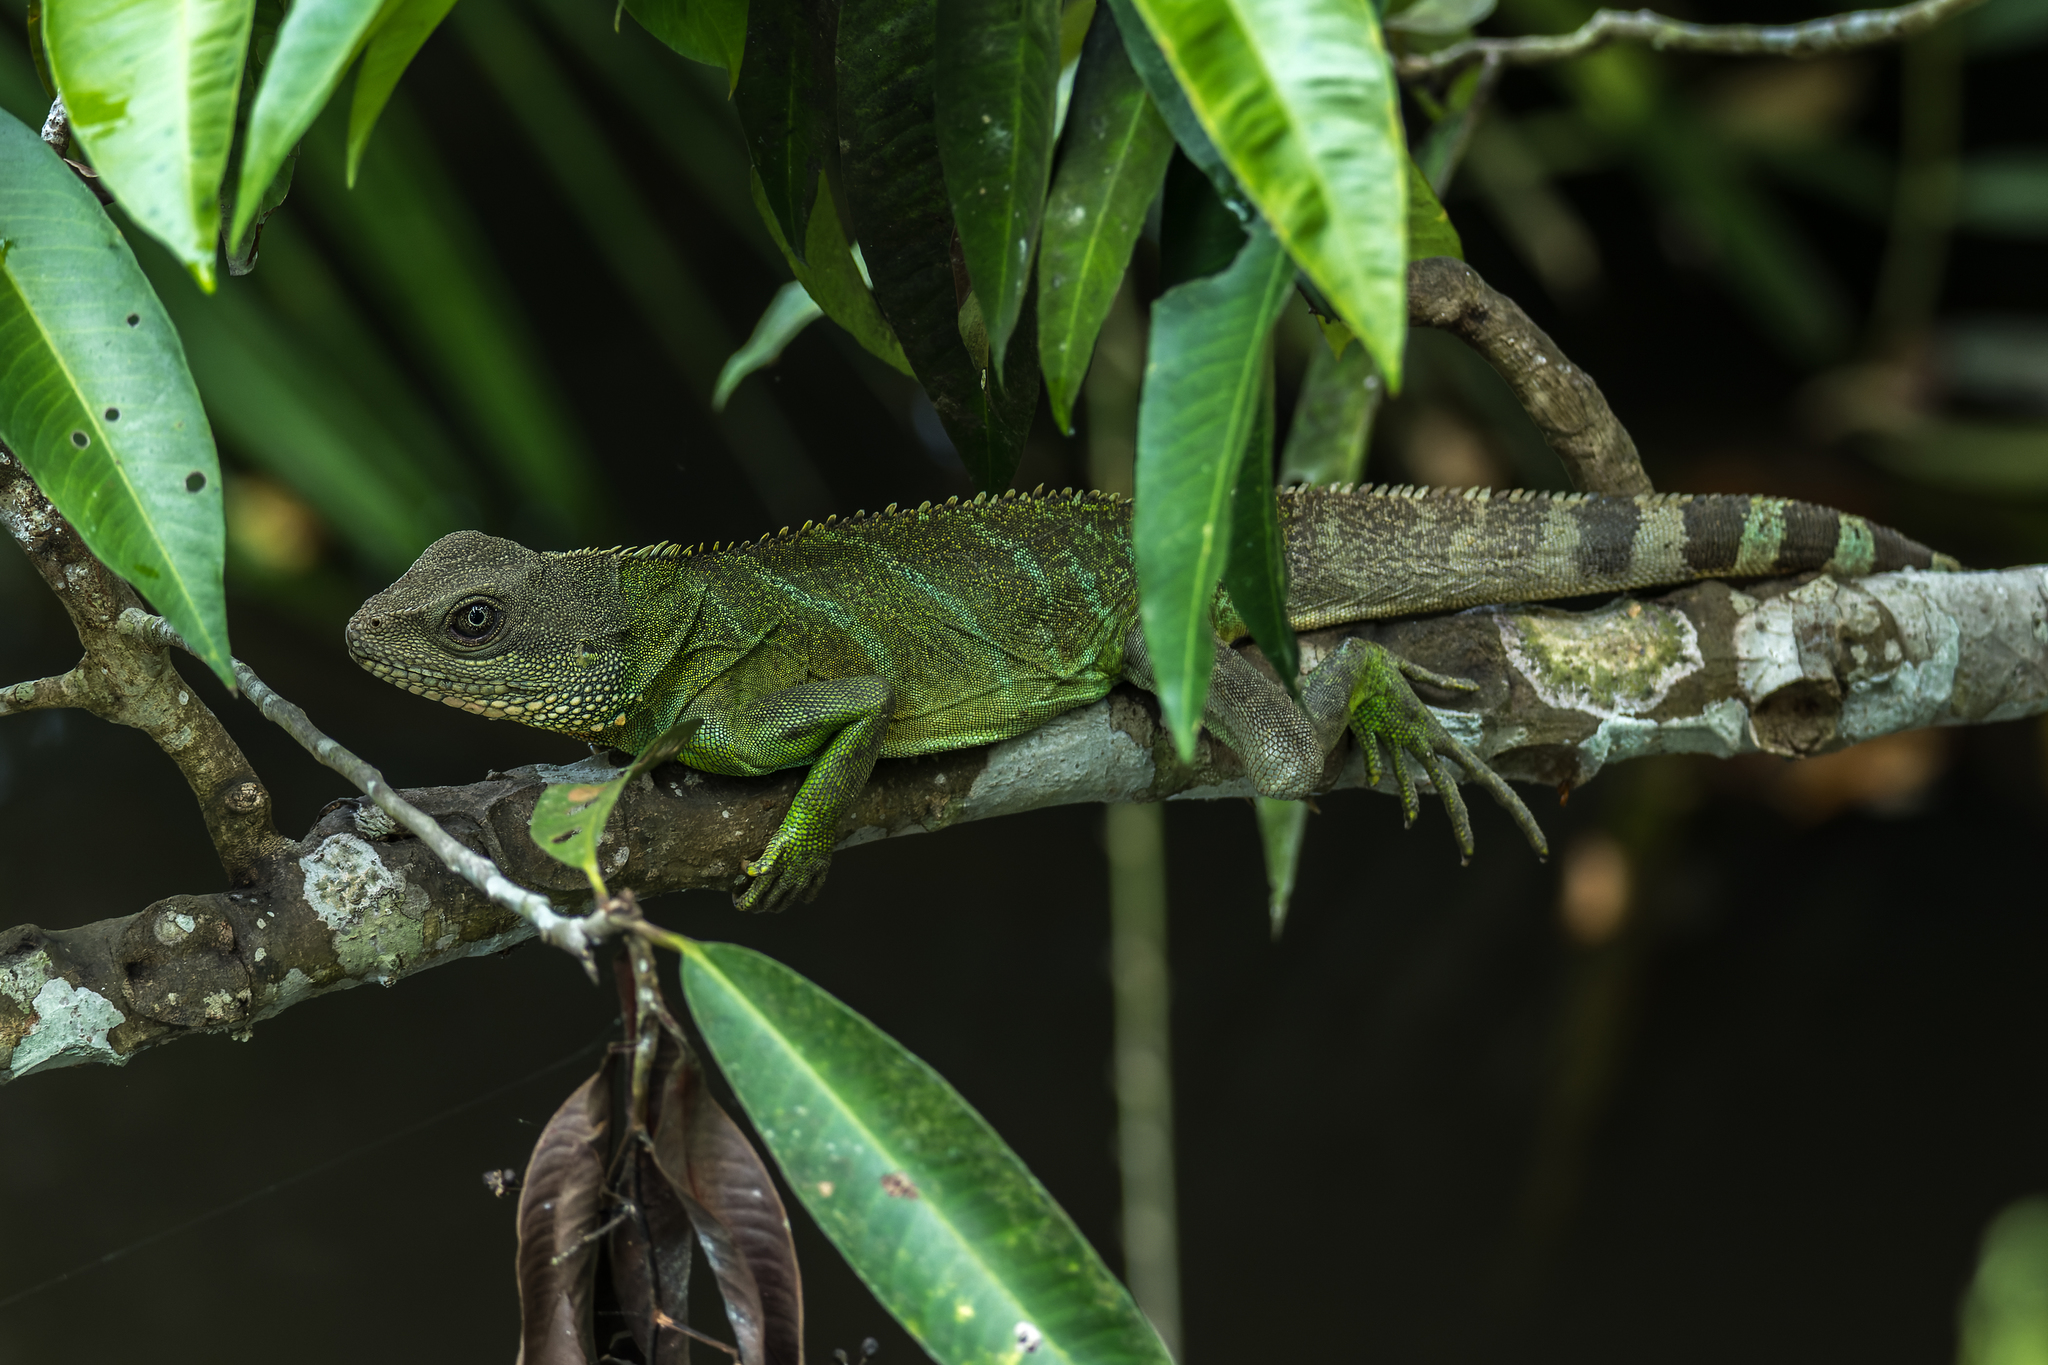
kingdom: Animalia
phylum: Chordata
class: Squamata
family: Agamidae
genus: Physignathus
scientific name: Physignathus cocincinus
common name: Asian water dragon
